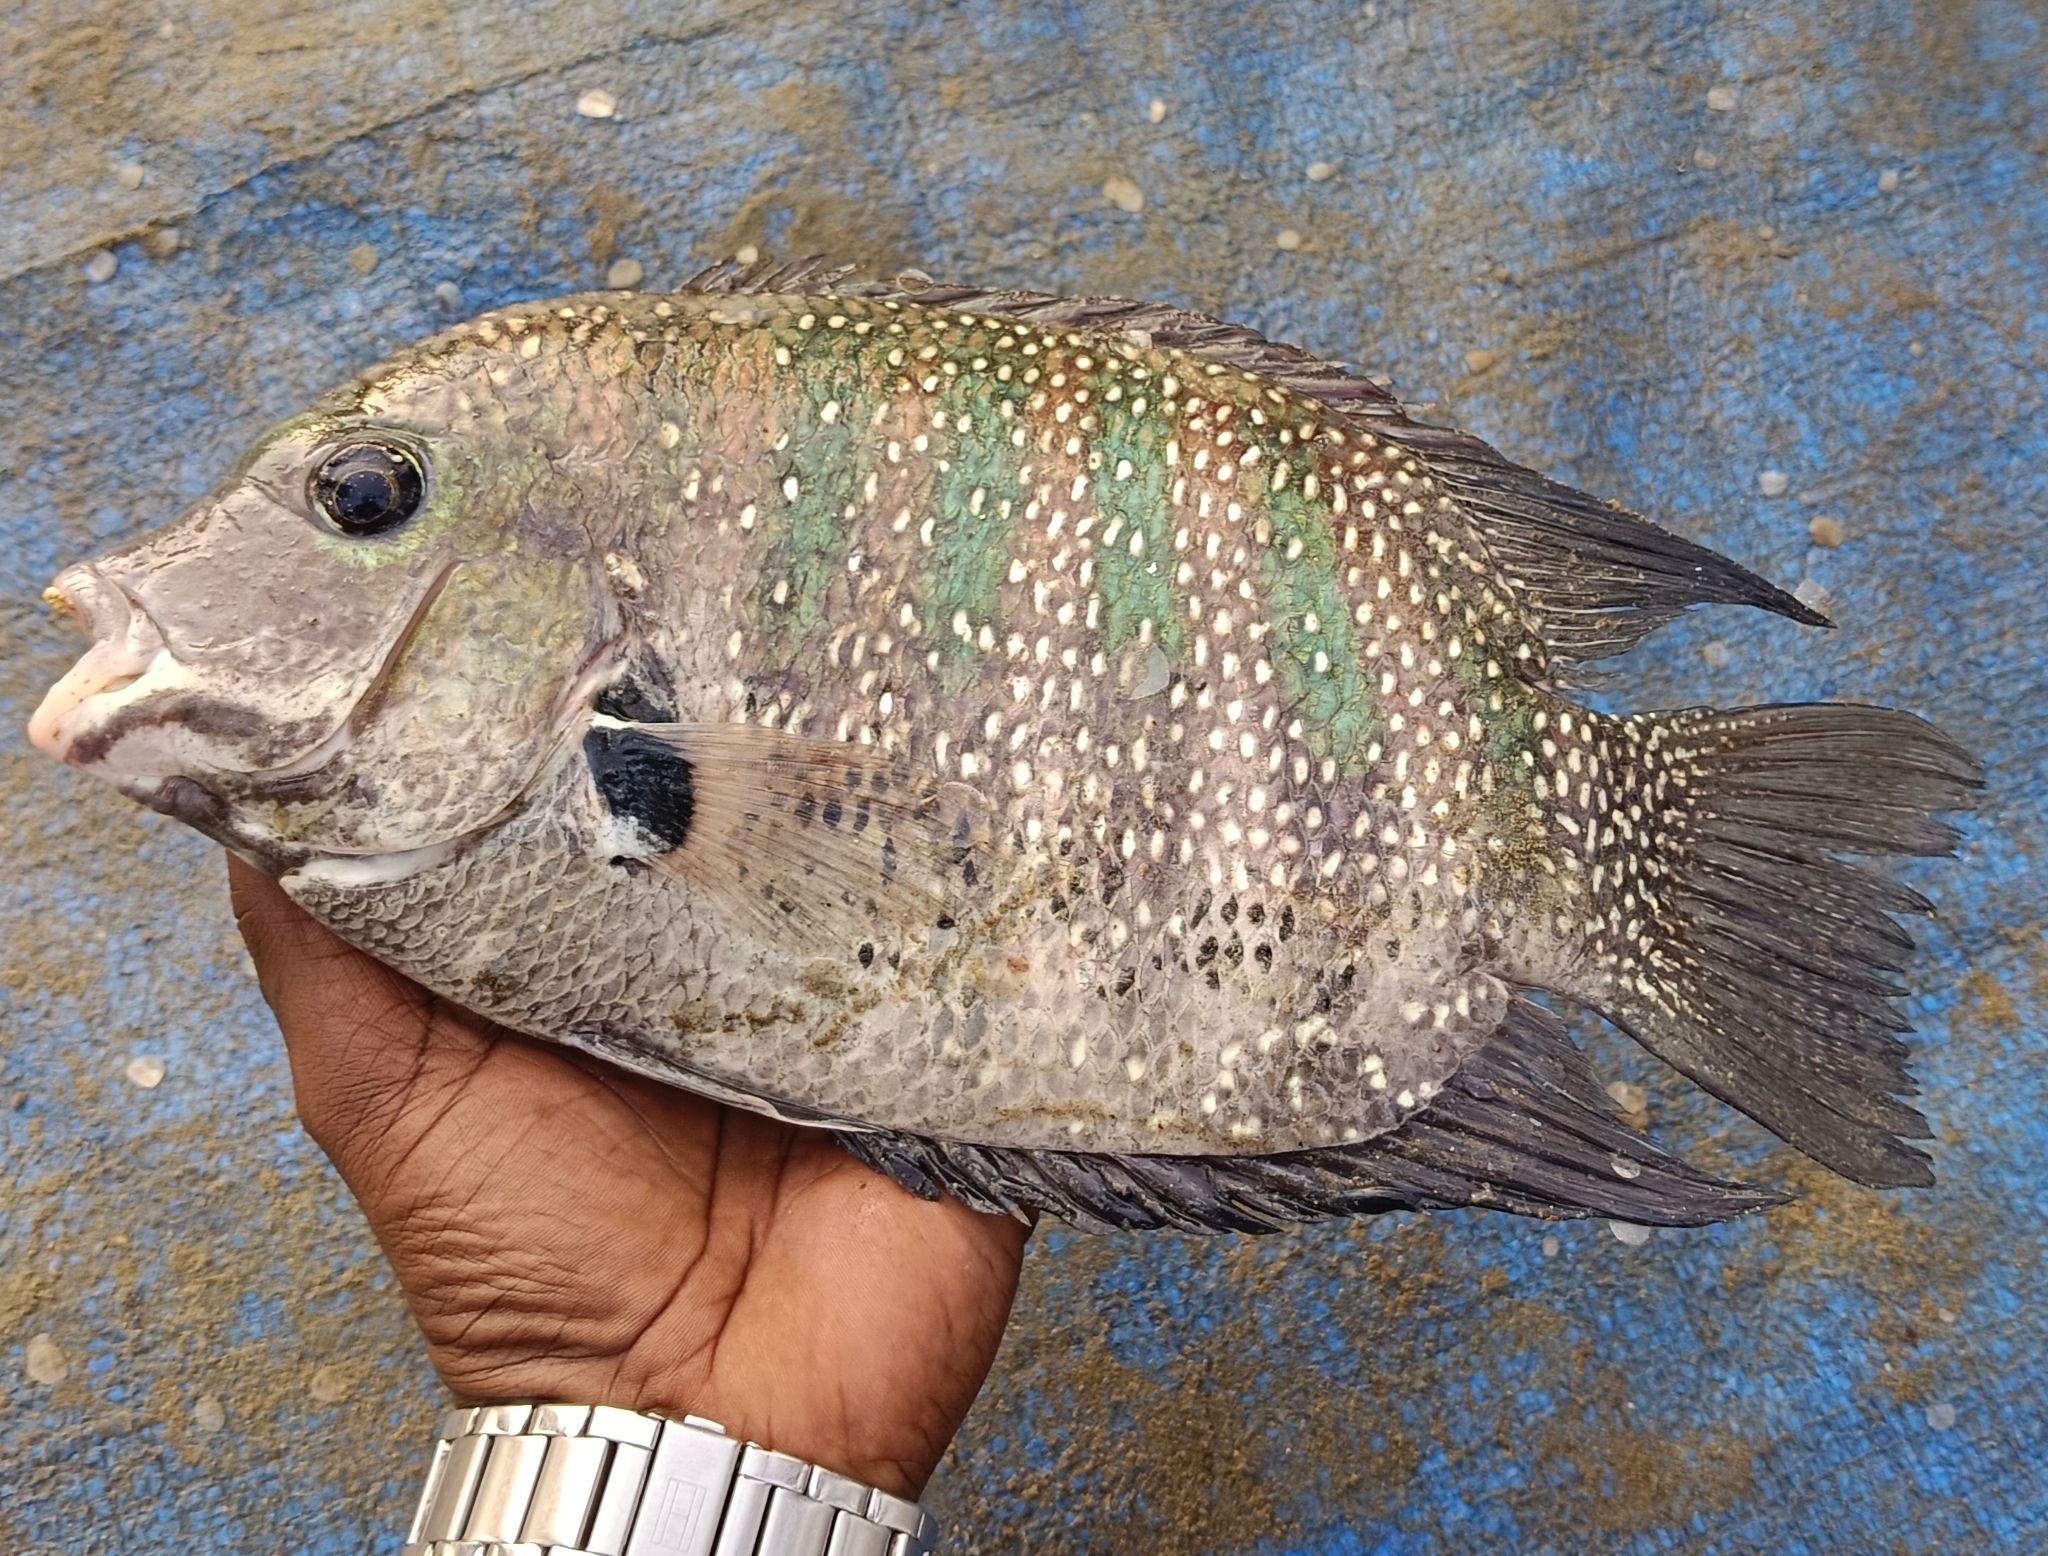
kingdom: Animalia
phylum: Chordata
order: Perciformes
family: Cichlidae
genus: Etroplus
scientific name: Etroplus suratensis
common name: Green chromide
